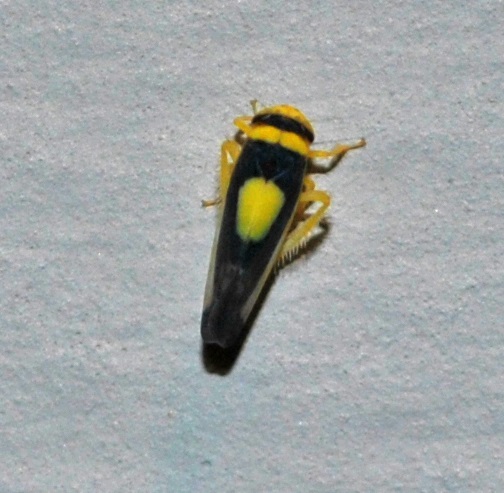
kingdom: Animalia
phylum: Arthropoda
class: Insecta
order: Hemiptera
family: Cicadellidae
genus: Colladonus
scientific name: Colladonus clitellarius
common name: The saddleback leafhopper
